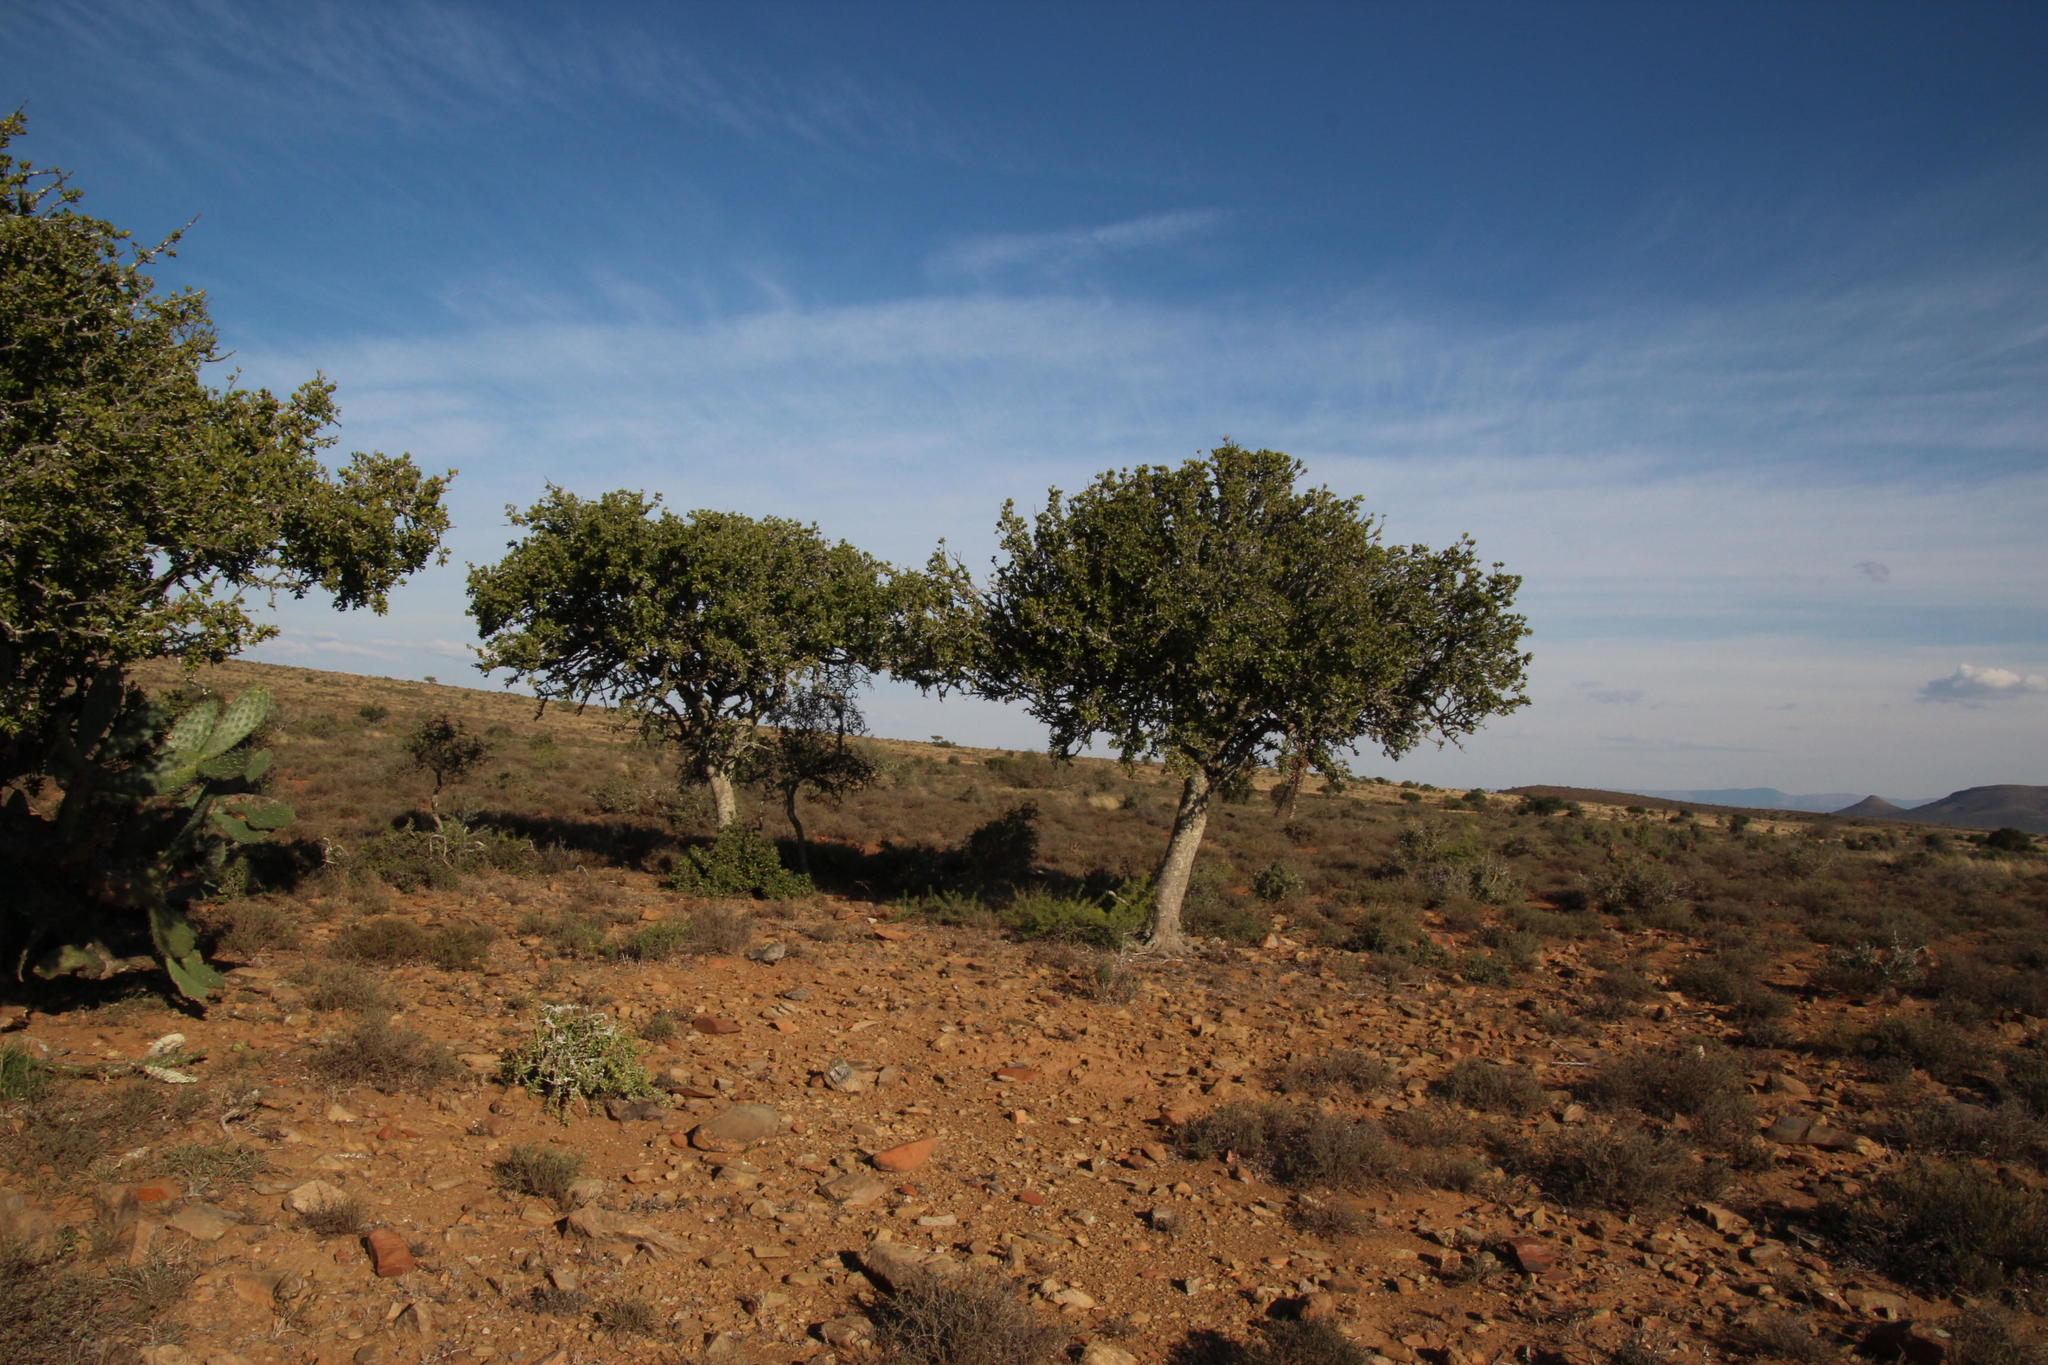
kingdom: Plantae
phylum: Tracheophyta
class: Magnoliopsida
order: Brassicales
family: Capparaceae
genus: Boscia
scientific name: Boscia albitrunca
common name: Caper bush
